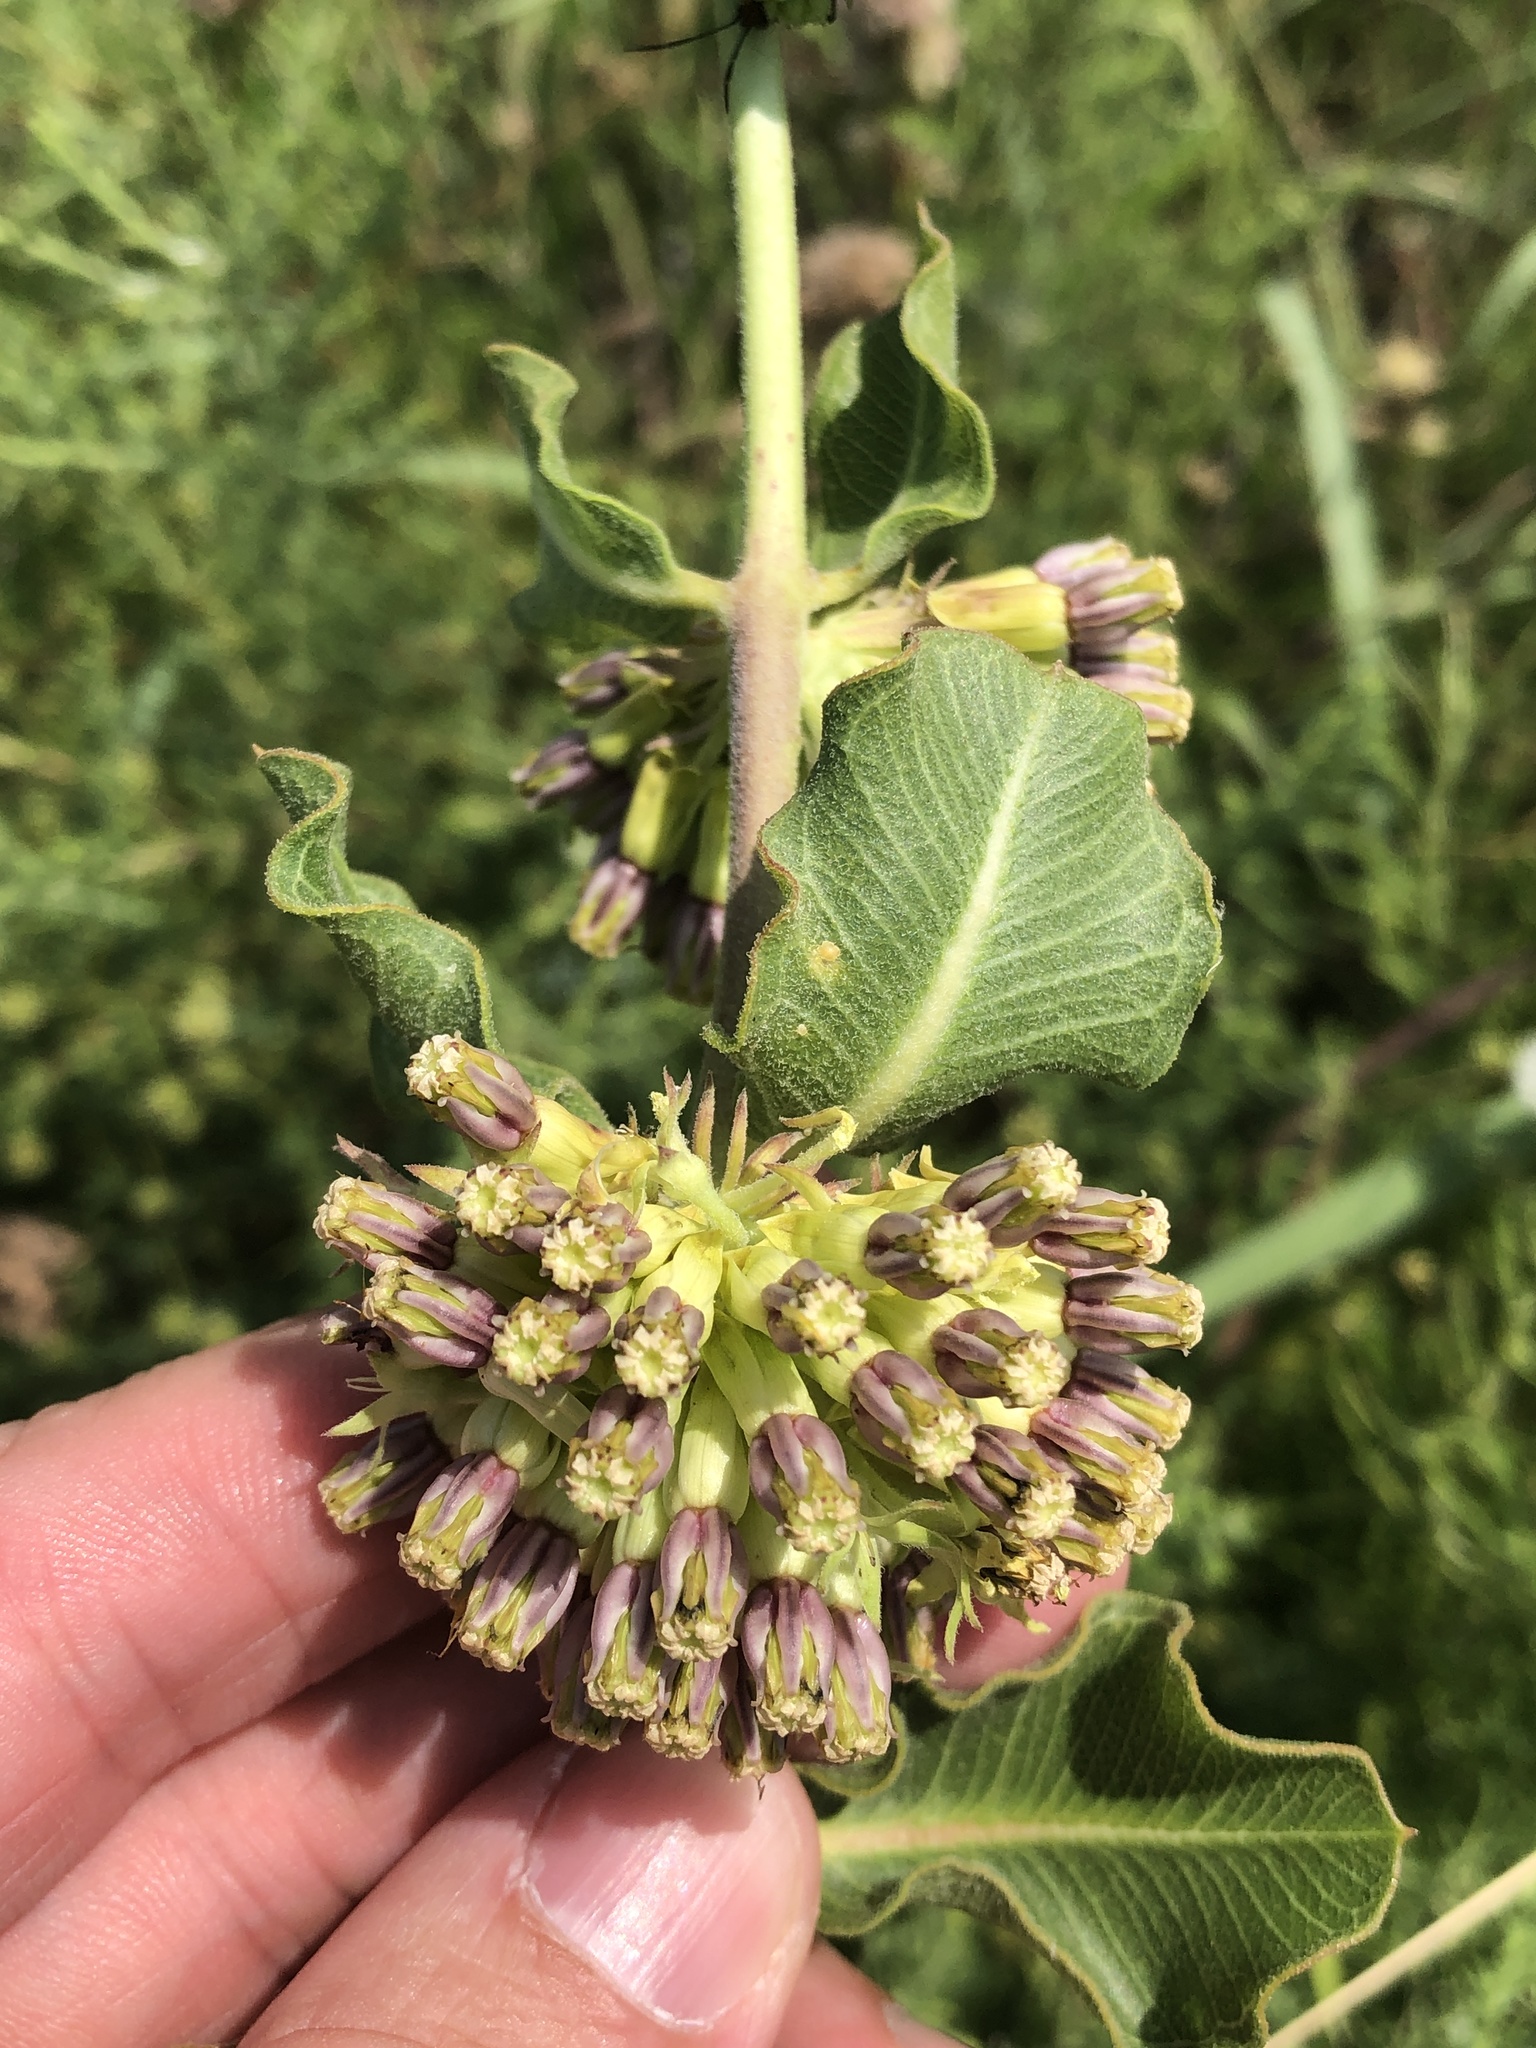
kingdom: Plantae
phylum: Tracheophyta
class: Magnoliopsida
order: Gentianales
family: Apocynaceae
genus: Asclepias
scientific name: Asclepias viridiflora
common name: Green comet milkweed
